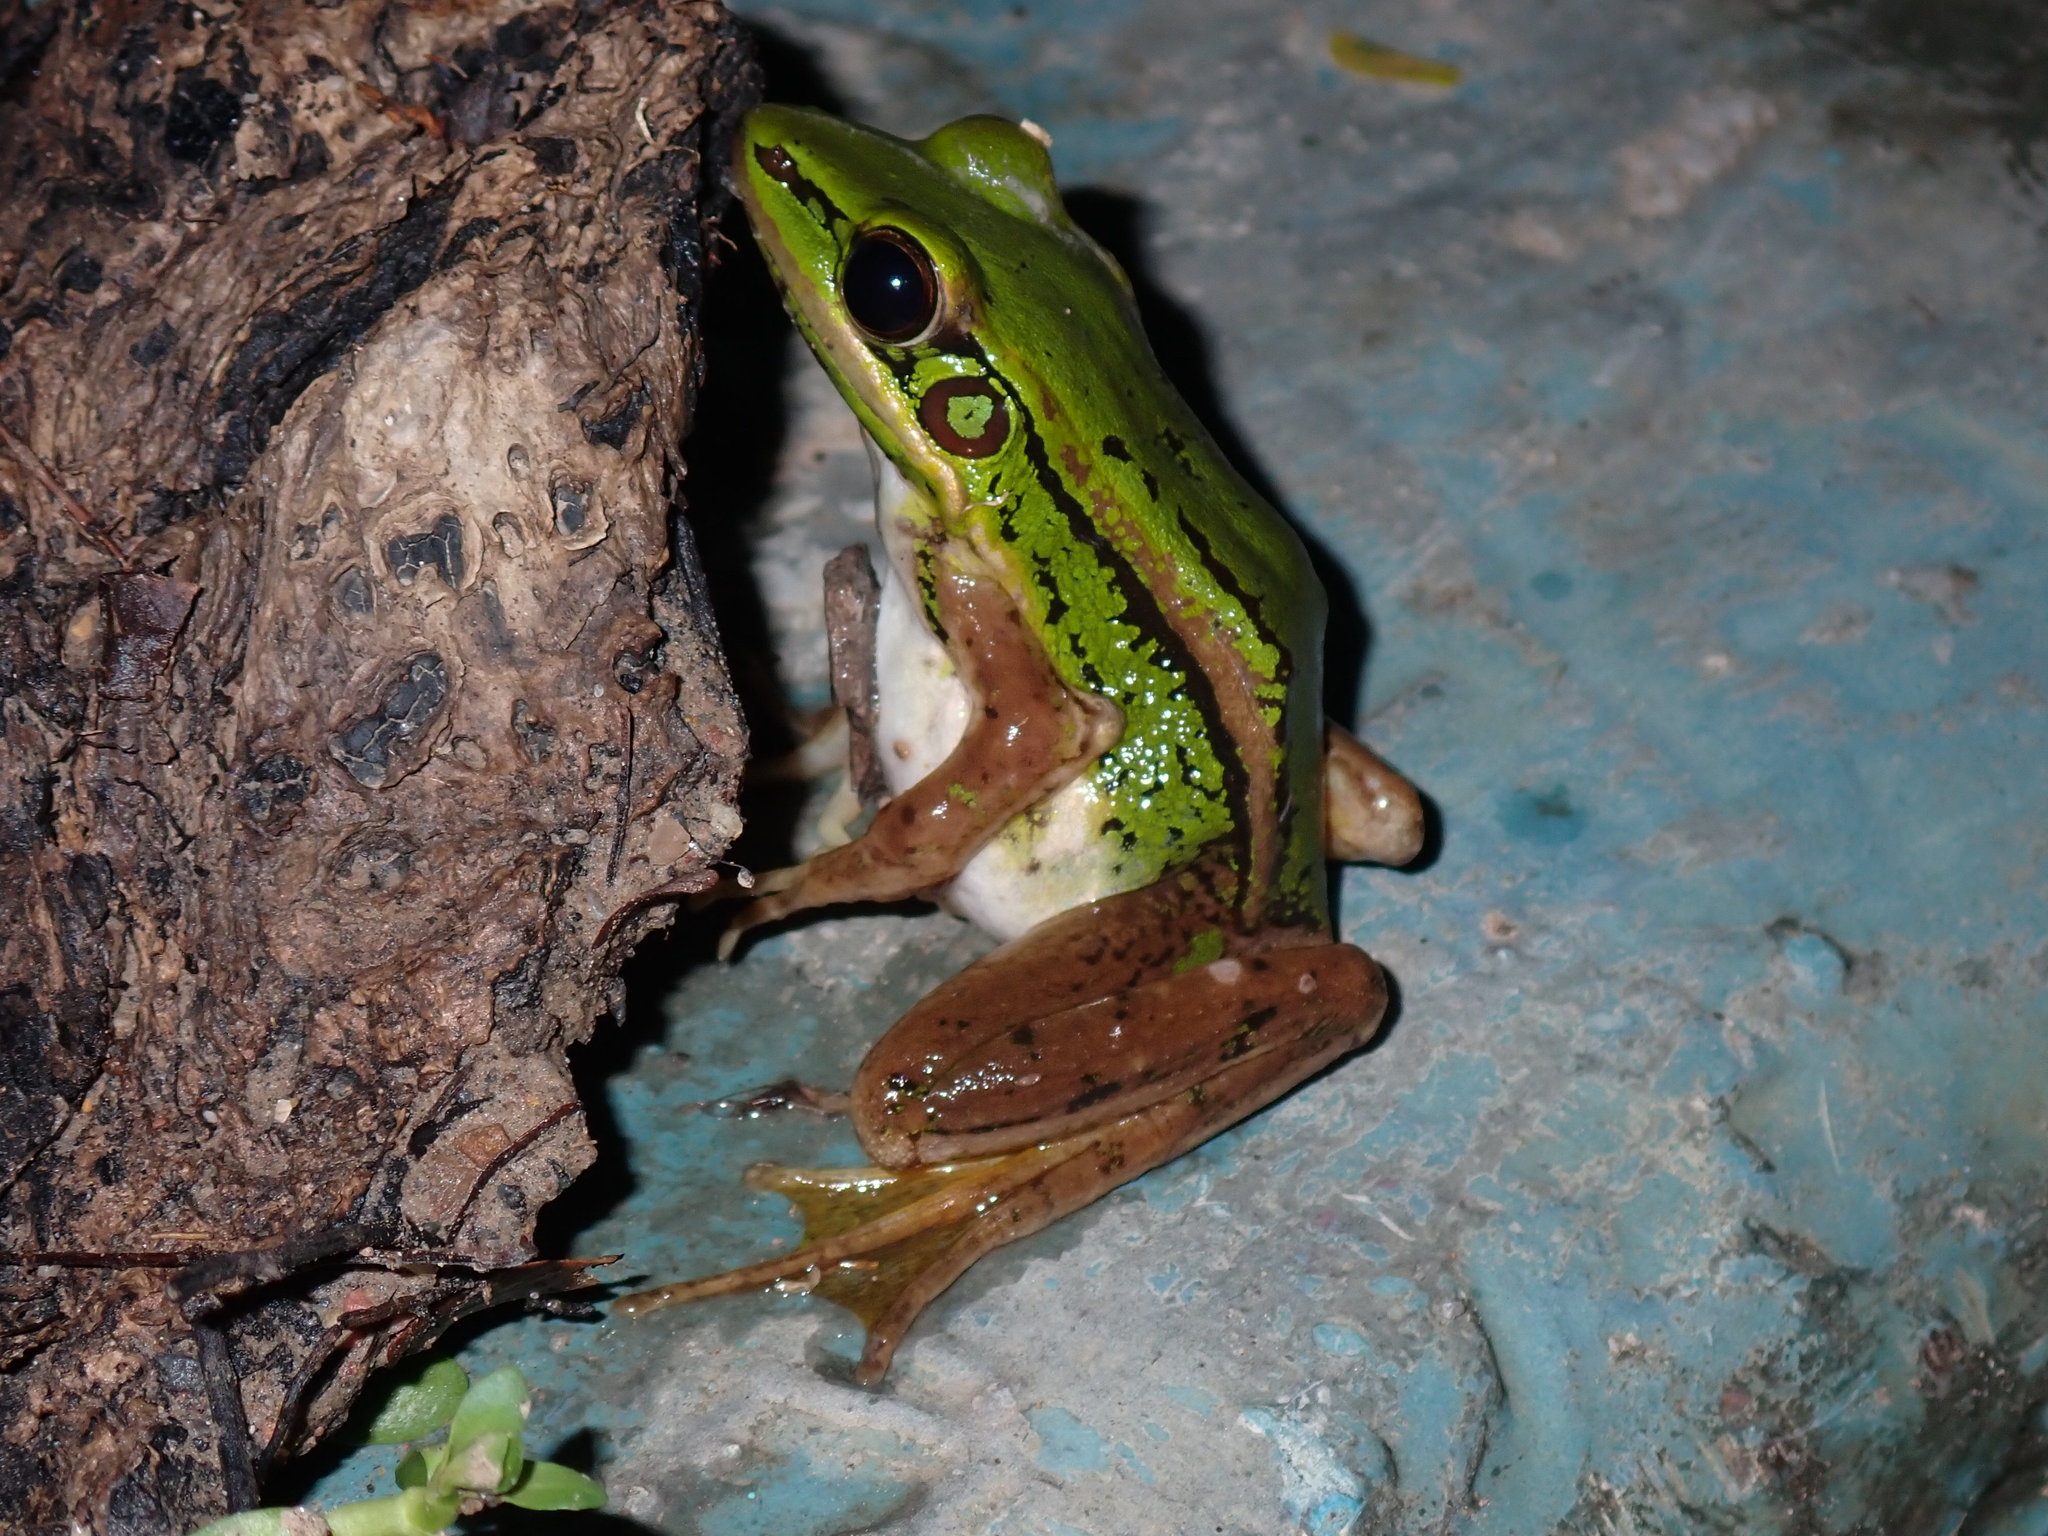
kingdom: Animalia
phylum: Chordata
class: Amphibia
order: Anura
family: Ranidae
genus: Hylarana
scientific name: Hylarana erythraea
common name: Common green frog/green paddy frog/leaf frog
